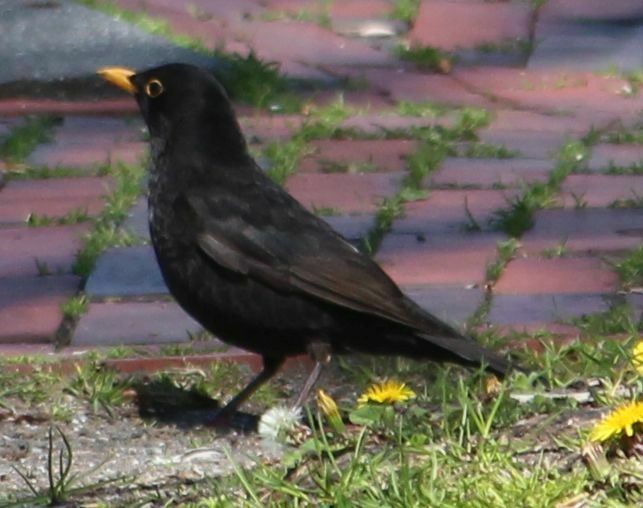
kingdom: Animalia
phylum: Chordata
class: Aves
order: Passeriformes
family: Turdidae
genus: Turdus
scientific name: Turdus merula
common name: Common blackbird
